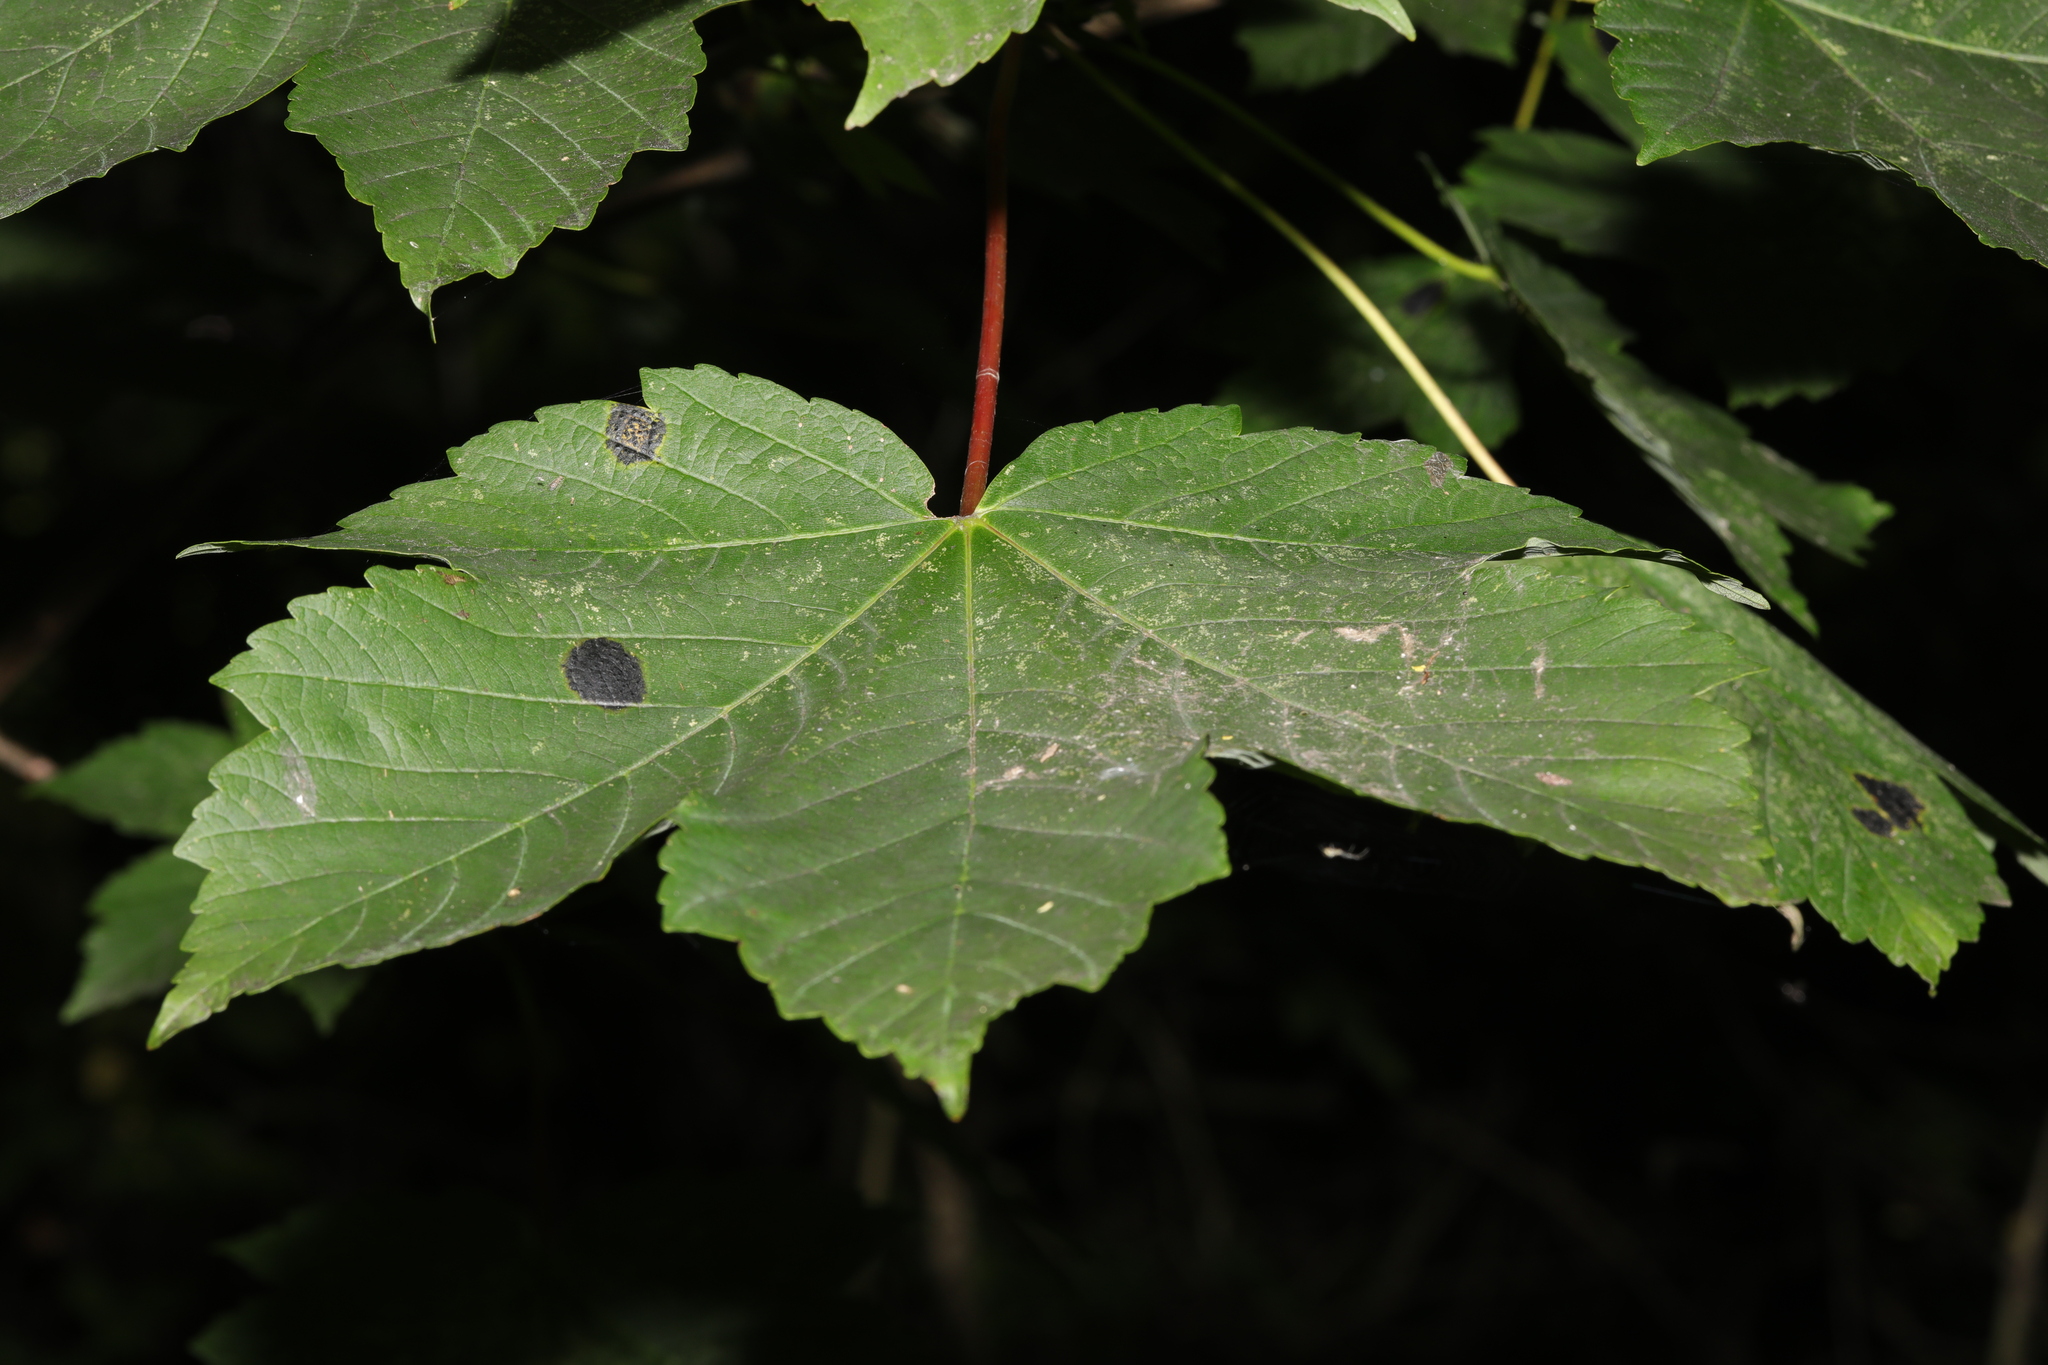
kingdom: Plantae
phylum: Tracheophyta
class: Magnoliopsida
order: Sapindales
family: Sapindaceae
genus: Acer
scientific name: Acer pseudoplatanus
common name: Sycamore
